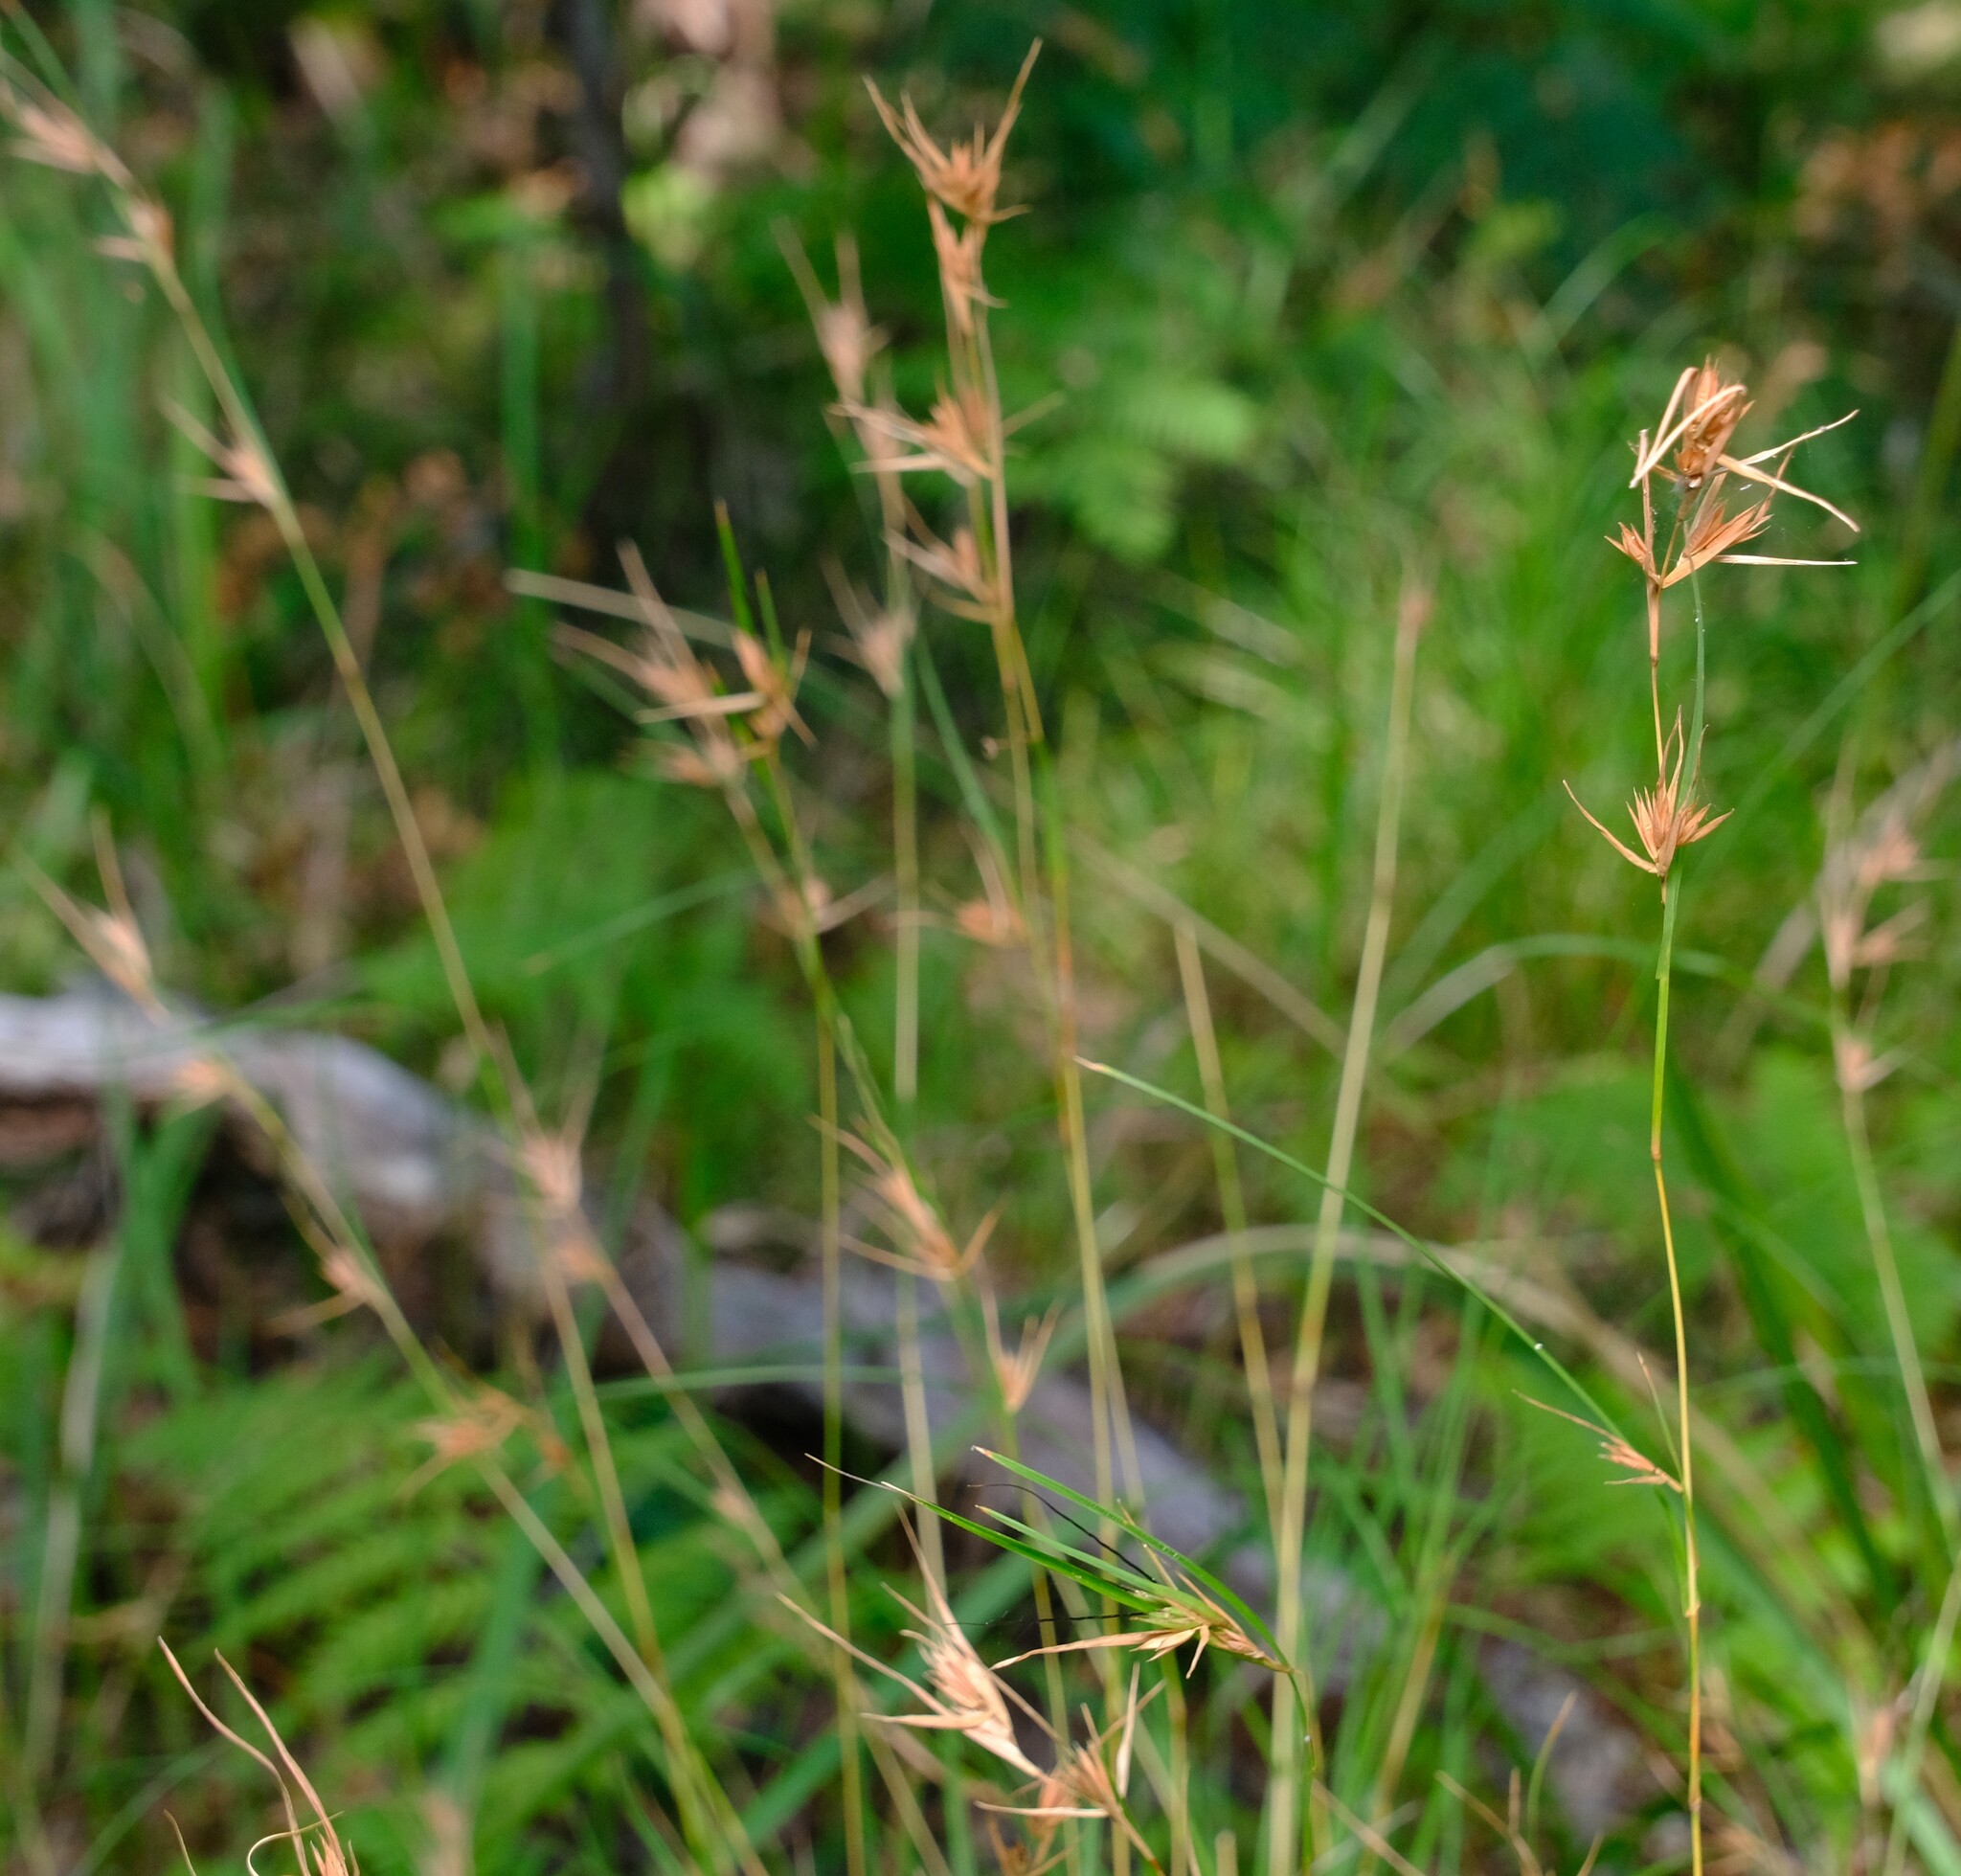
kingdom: Plantae
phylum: Tracheophyta
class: Liliopsida
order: Poales
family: Poaceae
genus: Themeda
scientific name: Themeda triandra
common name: Kangaroo grass
